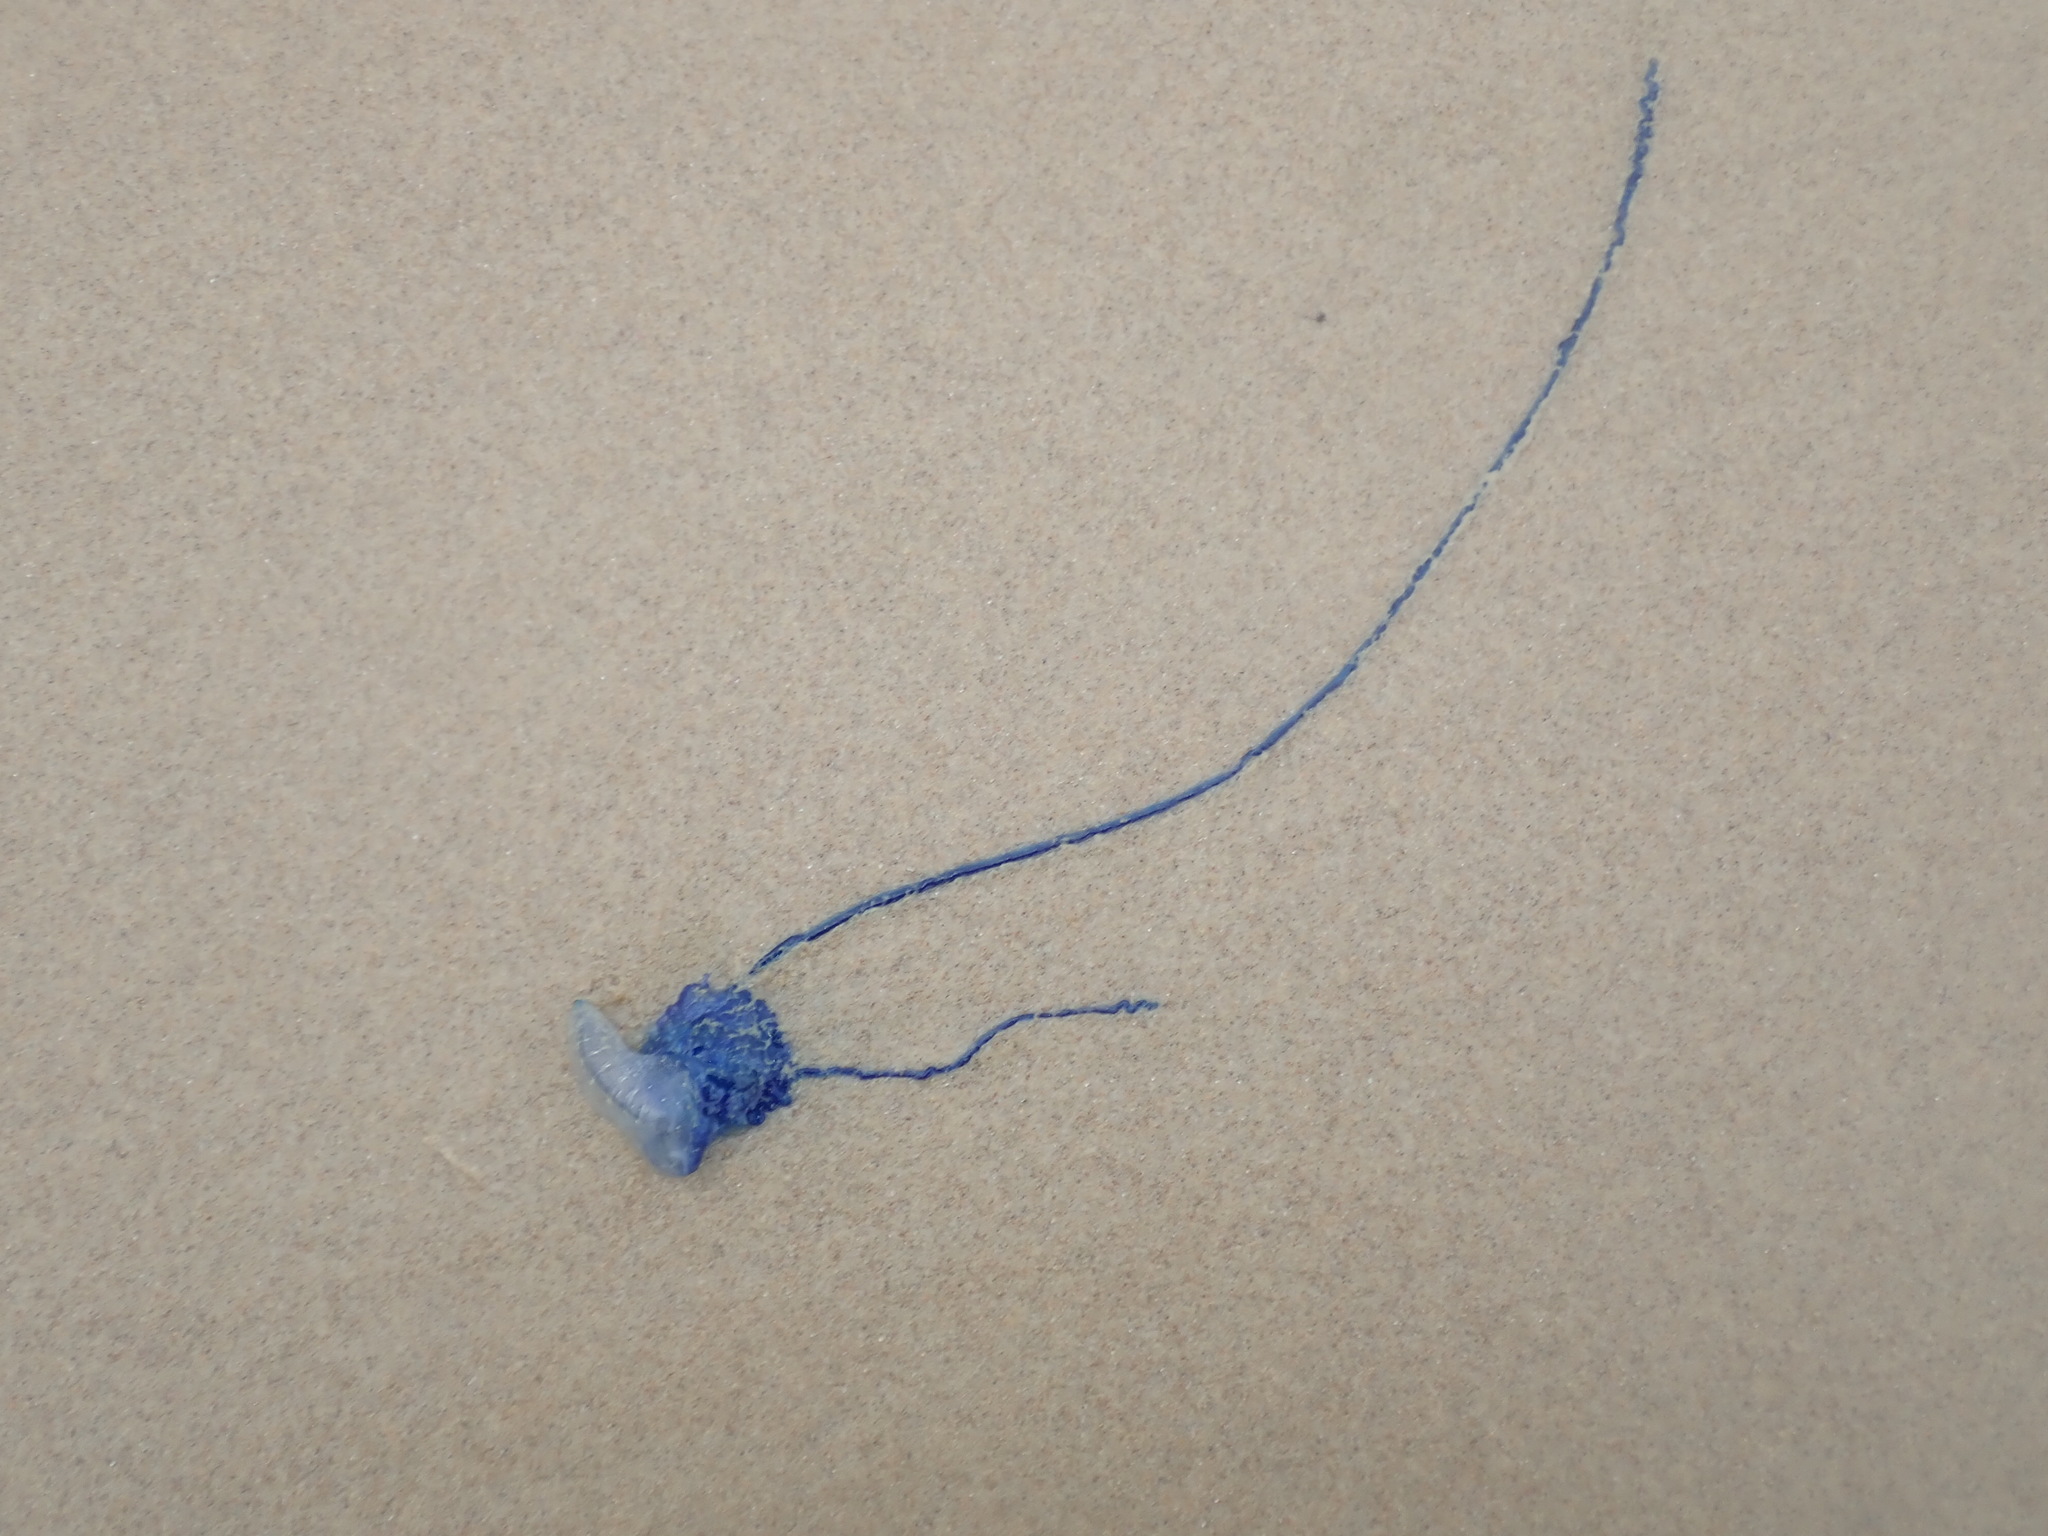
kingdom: Animalia
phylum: Cnidaria
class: Hydrozoa
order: Siphonophorae
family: Physaliidae
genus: Physalia
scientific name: Physalia physalis
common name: Portuguese man-of-war
